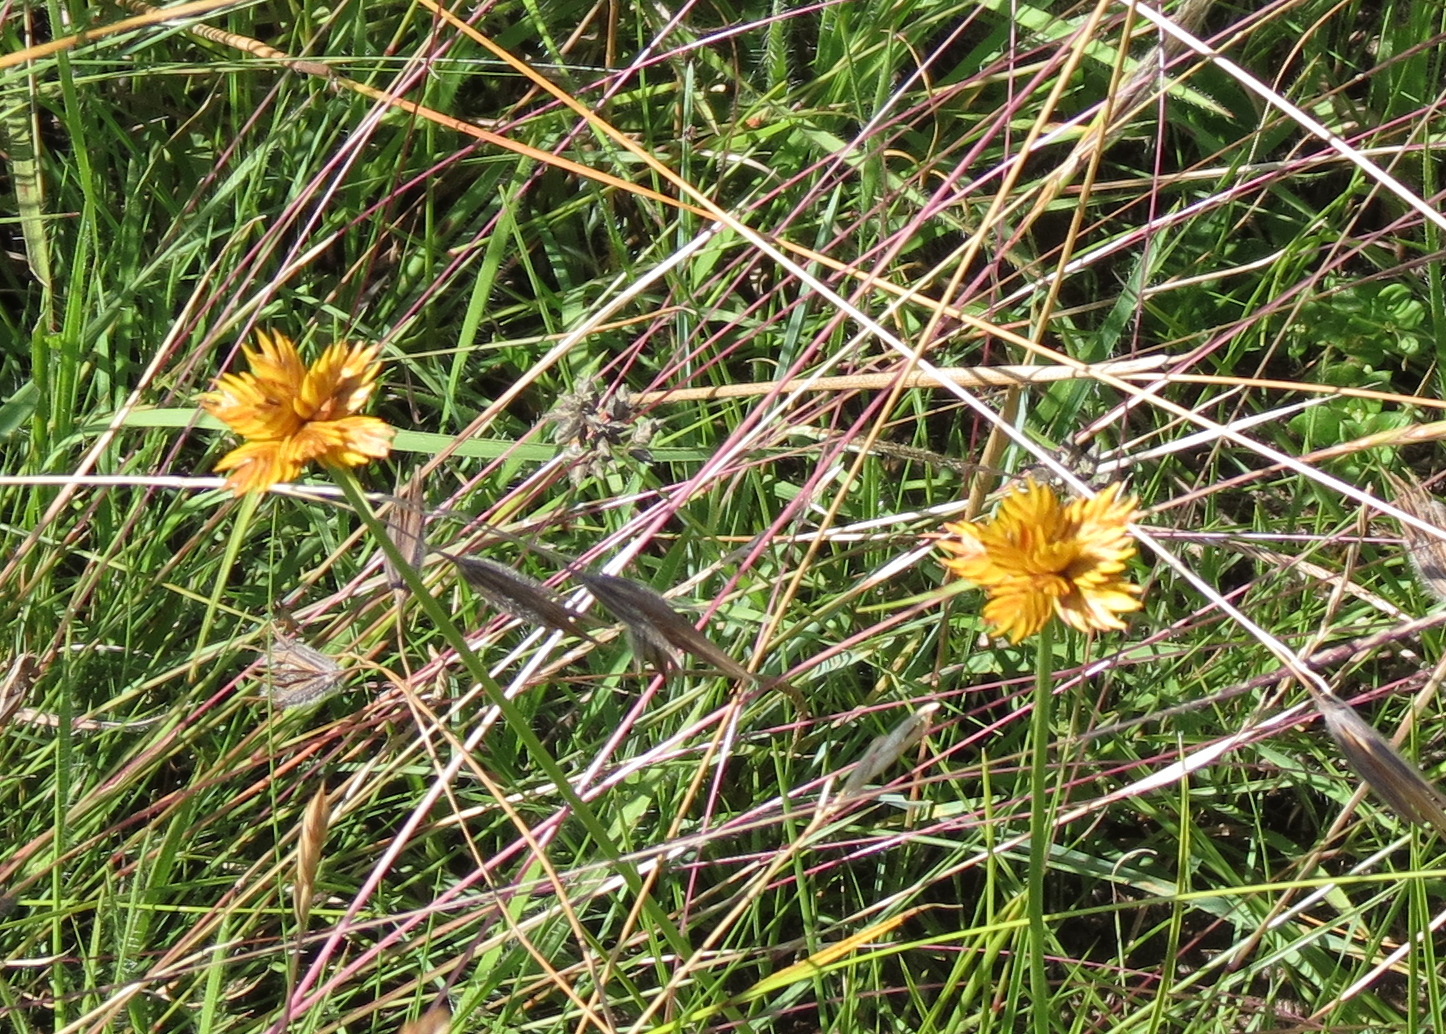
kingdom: Plantae
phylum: Tracheophyta
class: Liliopsida
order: Poales
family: Cyperaceae
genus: Cyperus
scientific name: Cyperus sphaerocephalus
